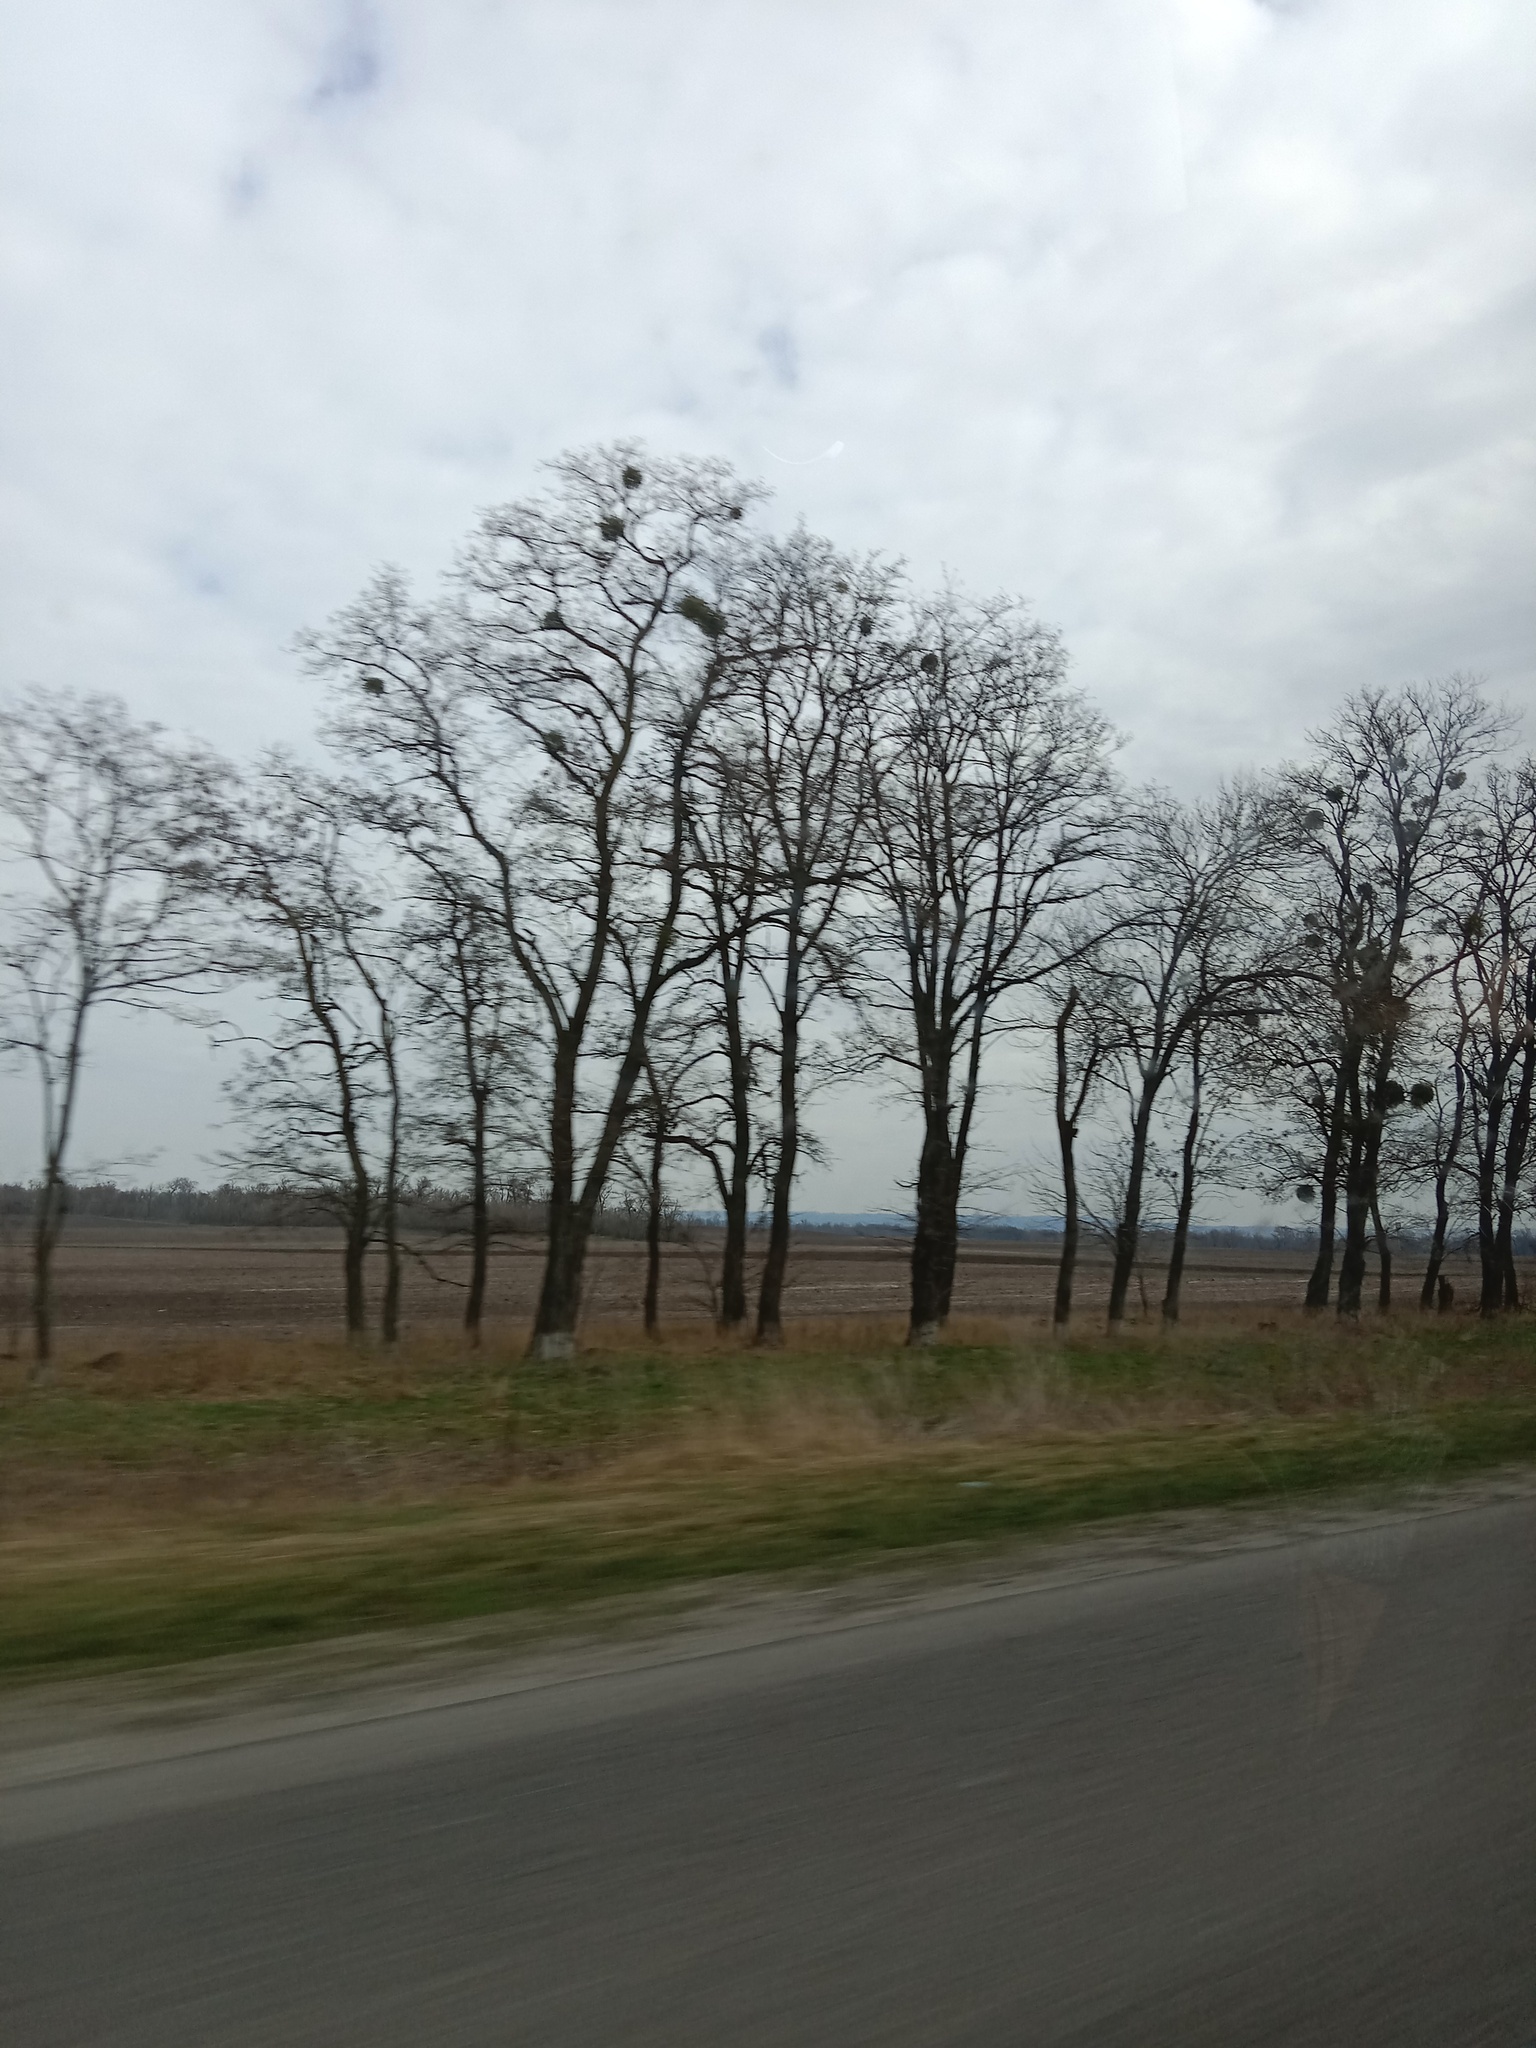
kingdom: Plantae
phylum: Tracheophyta
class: Magnoliopsida
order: Santalales
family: Viscaceae
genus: Viscum
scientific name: Viscum album
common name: Mistletoe
